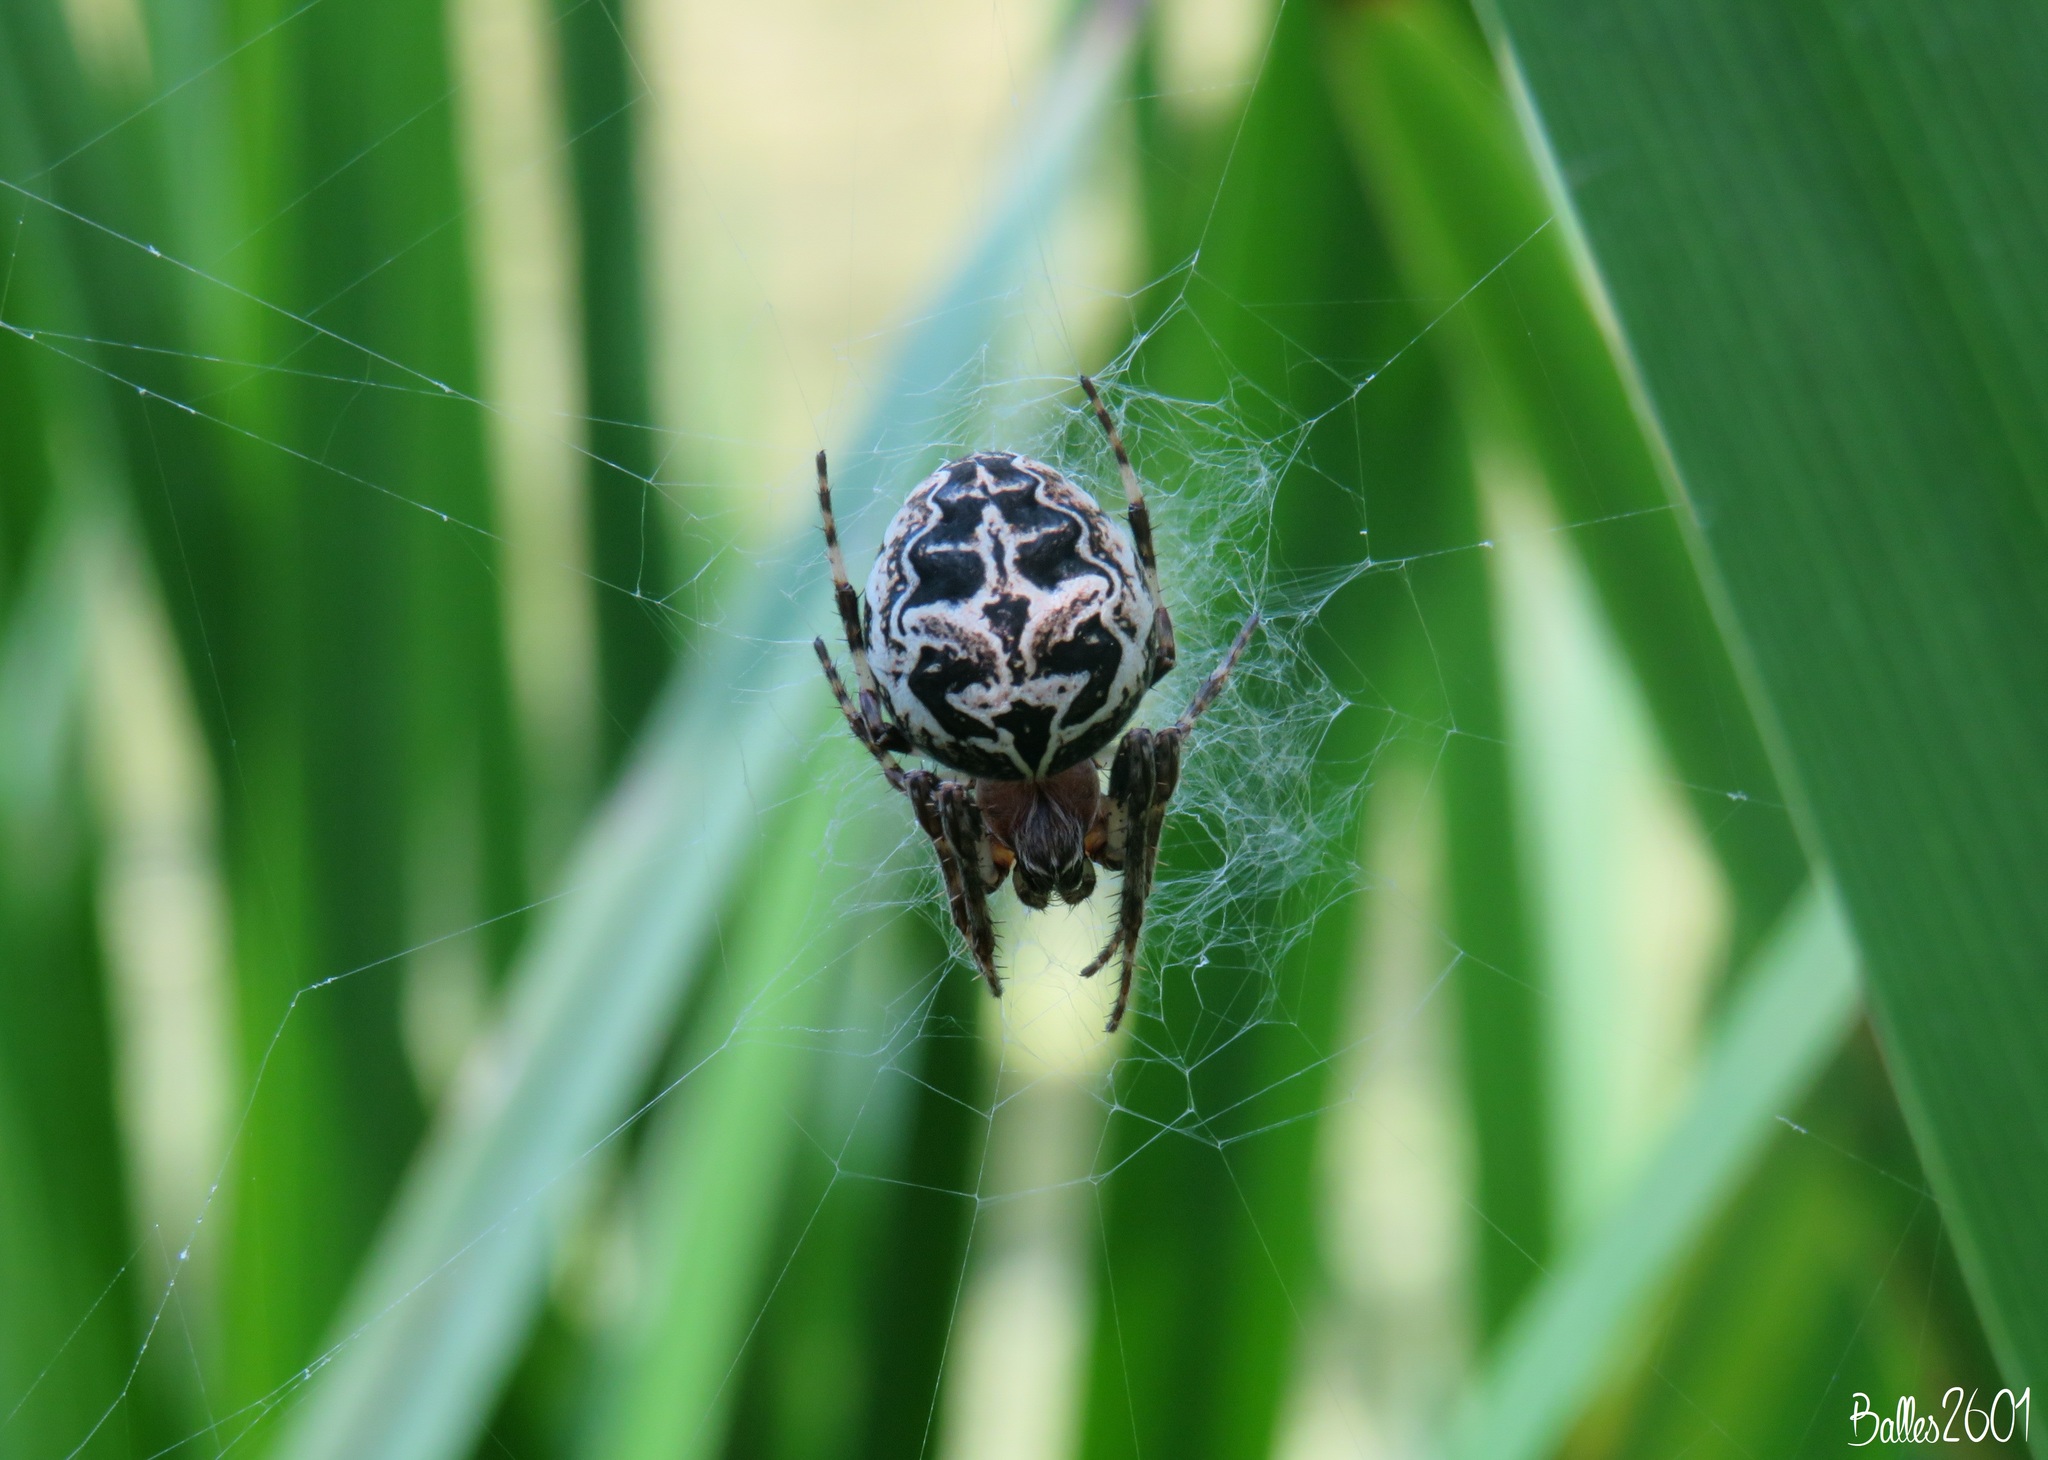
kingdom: Animalia
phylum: Arthropoda
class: Arachnida
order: Araneae
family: Araneidae
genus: Larinioides
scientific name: Larinioides sclopetarius
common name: Bridge orbweaver
